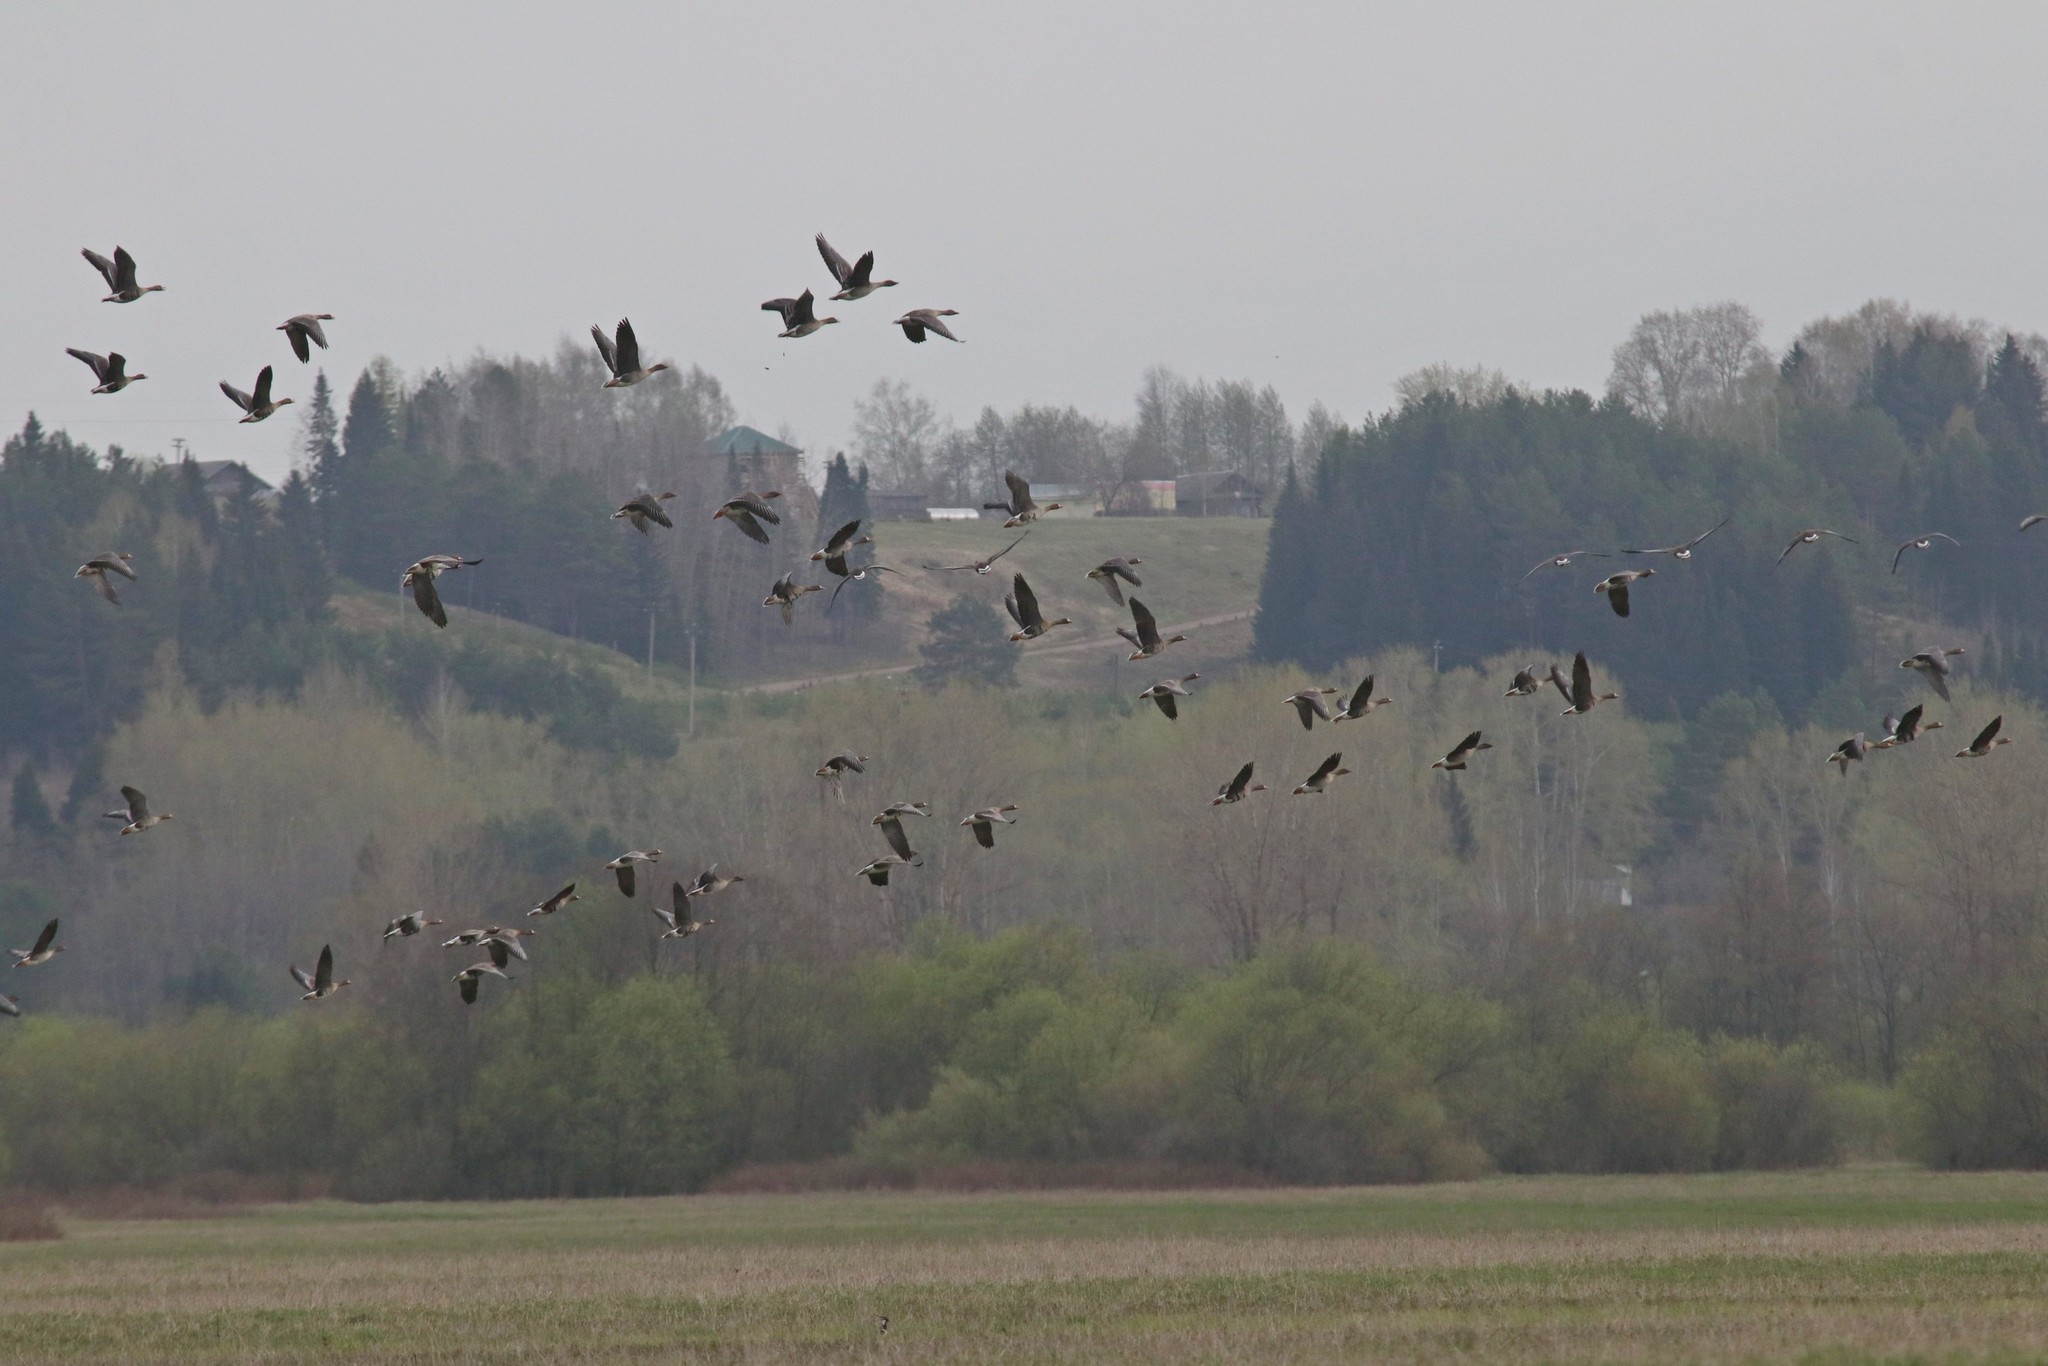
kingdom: Animalia
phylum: Chordata
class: Aves
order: Anseriformes
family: Anatidae
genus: Anser
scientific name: Anser albifrons
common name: Greater white-fronted goose
